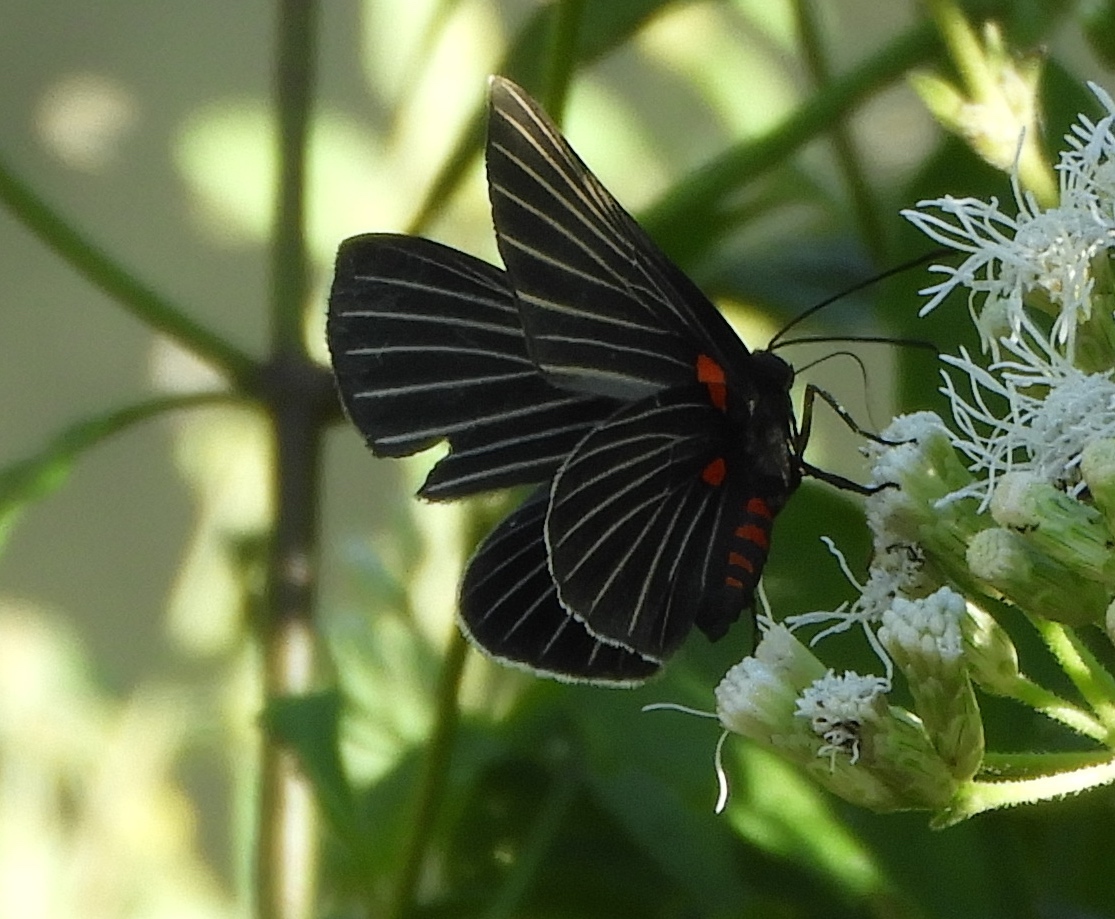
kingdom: Animalia
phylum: Arthropoda
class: Insecta
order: Lepidoptera
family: Lycaenidae
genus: Melanis
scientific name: Melanis
